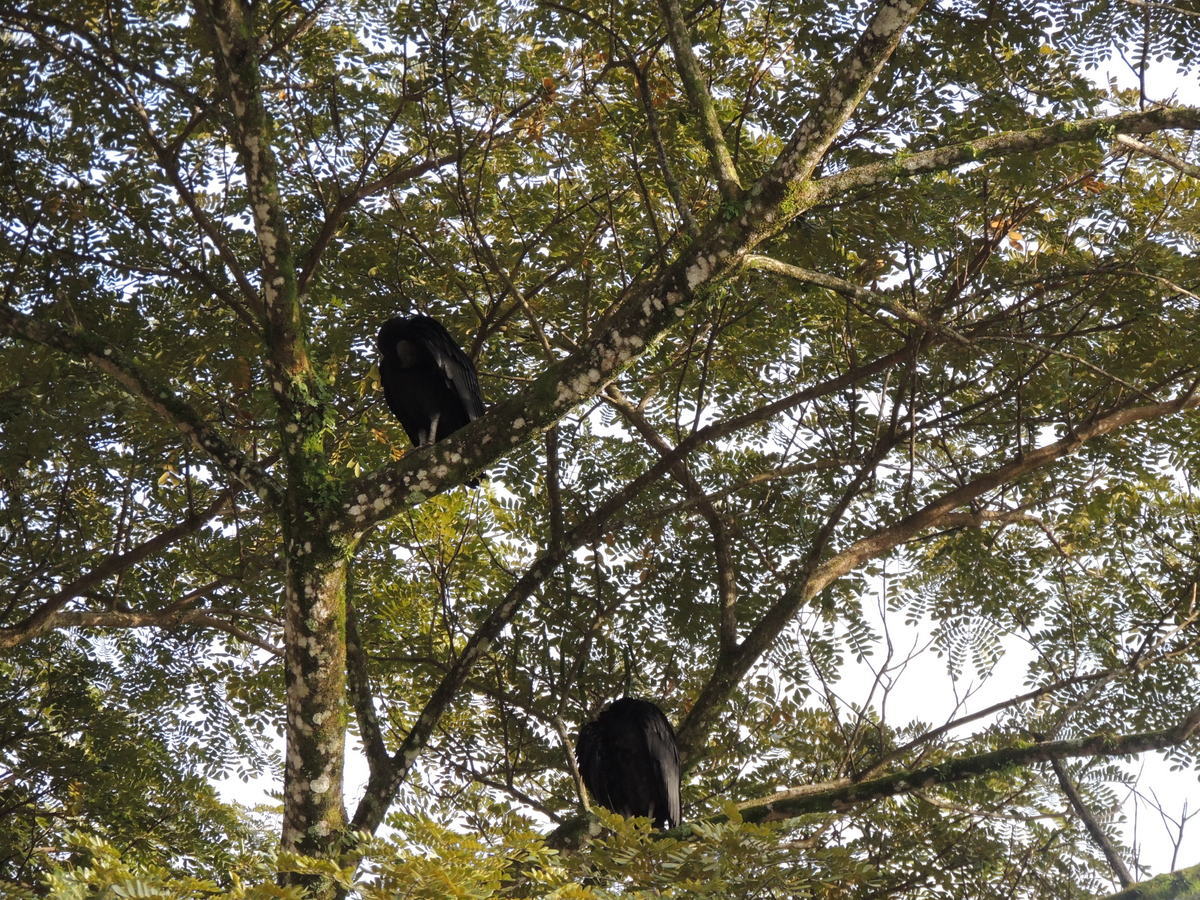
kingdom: Animalia
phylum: Chordata
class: Aves
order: Accipitriformes
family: Cathartidae
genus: Coragyps
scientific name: Coragyps atratus
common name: Black vulture
